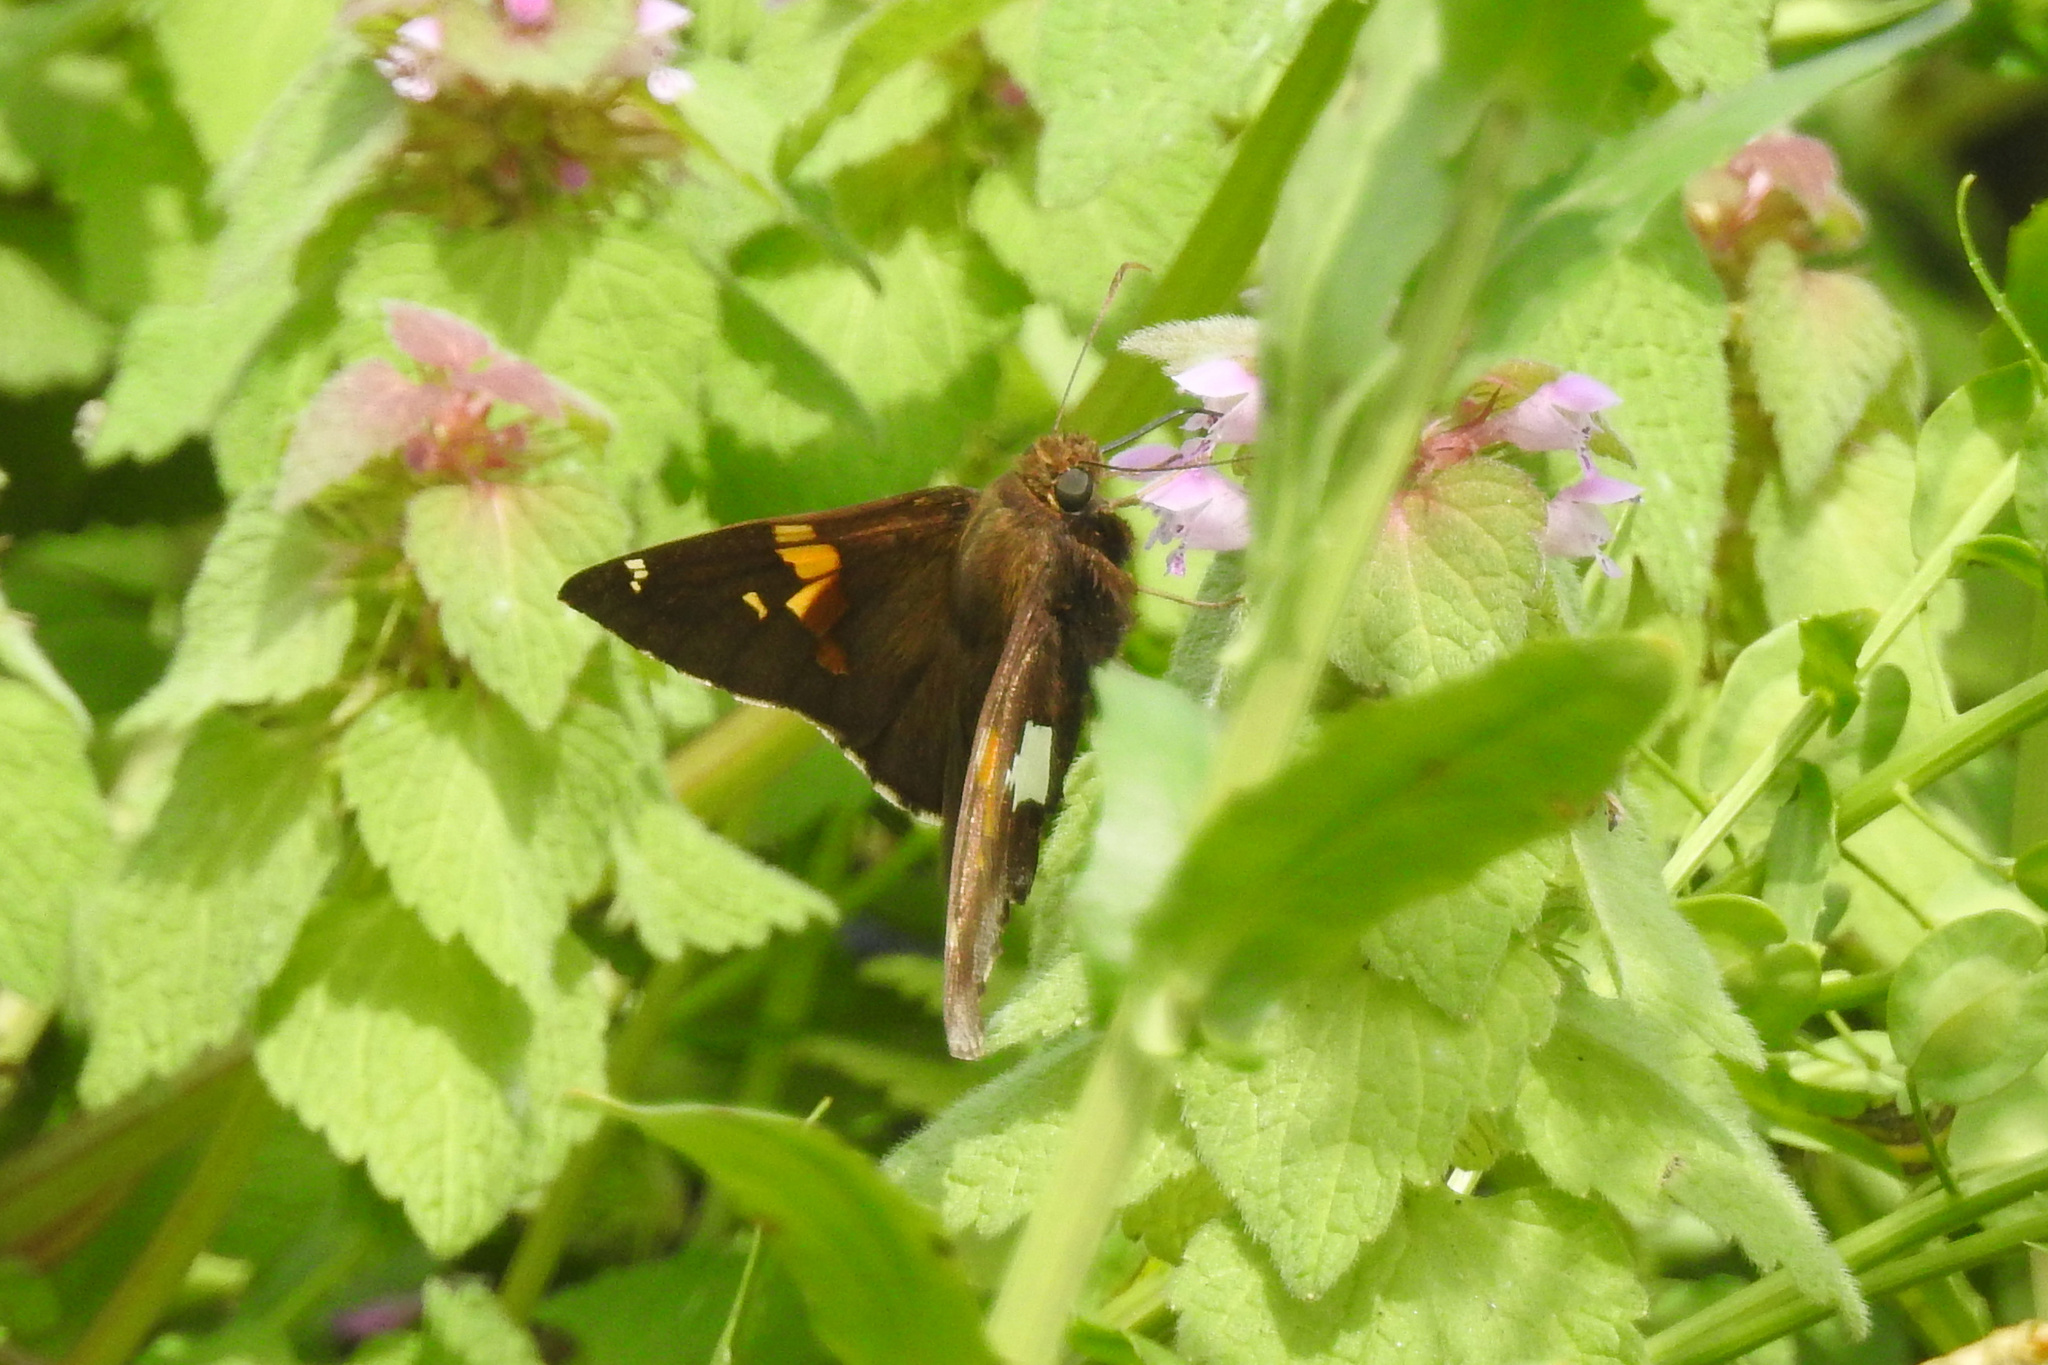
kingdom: Animalia
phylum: Arthropoda
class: Insecta
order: Lepidoptera
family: Hesperiidae
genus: Epargyreus
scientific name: Epargyreus clarus
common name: Silver-spotted skipper
